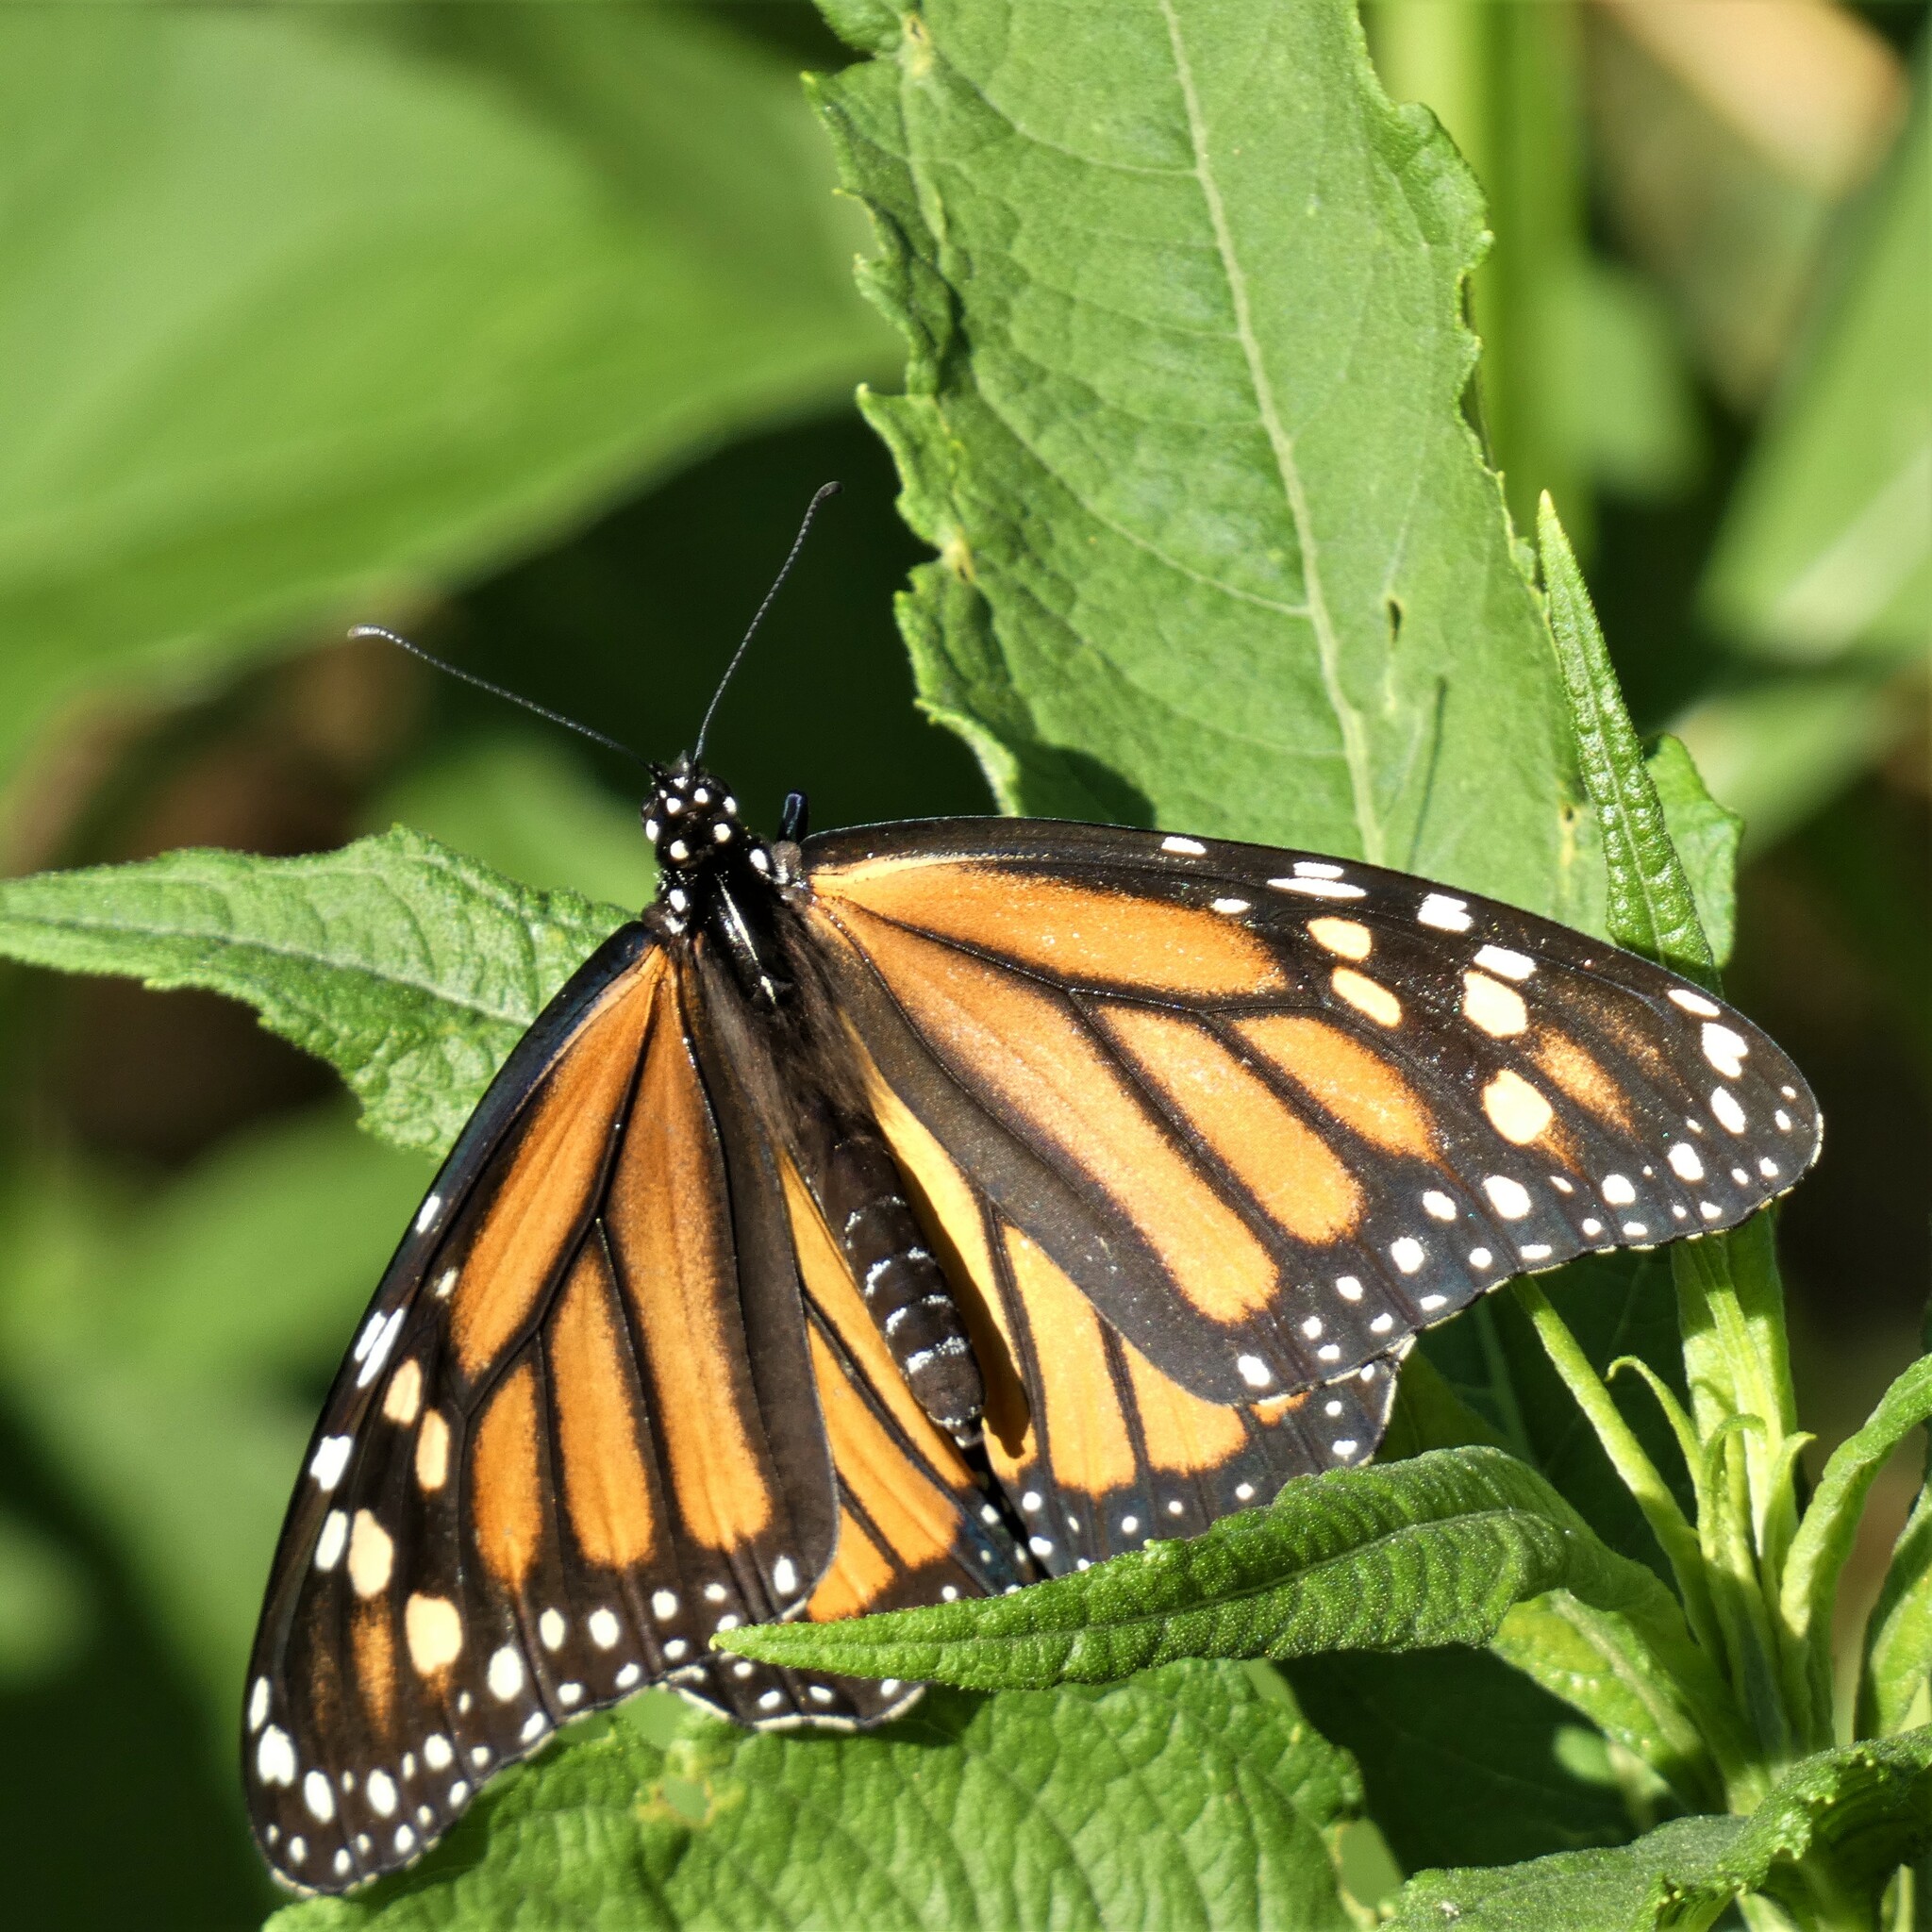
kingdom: Animalia
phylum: Arthropoda
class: Insecta
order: Lepidoptera
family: Nymphalidae
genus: Danaus
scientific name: Danaus plexippus
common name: Monarch
